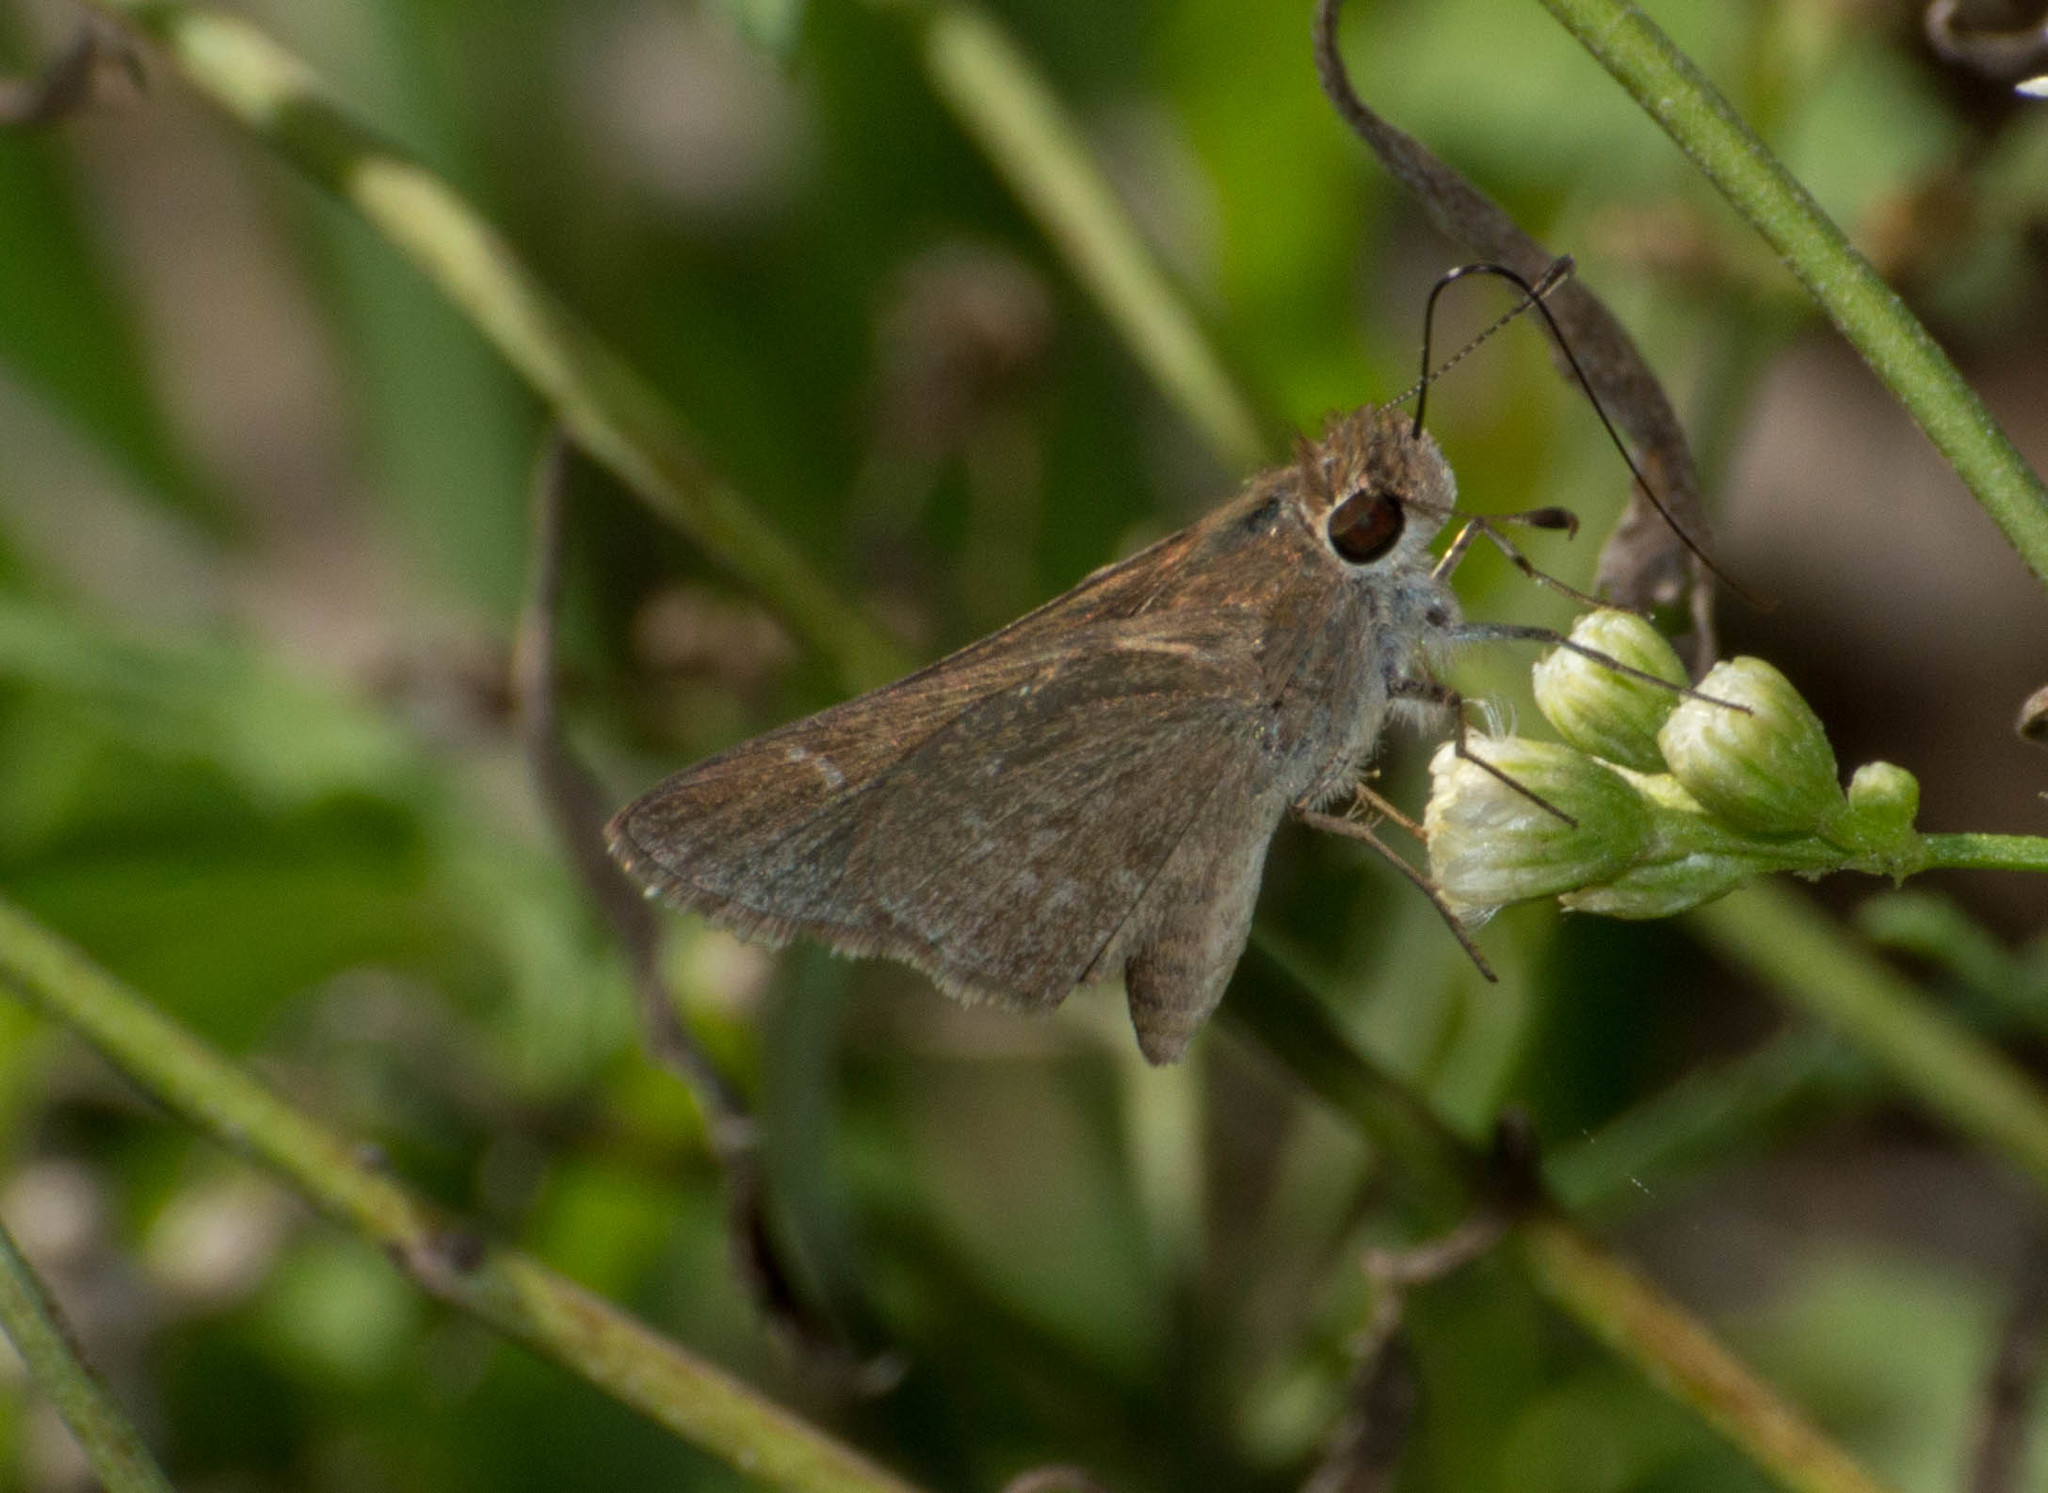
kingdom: Animalia
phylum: Arthropoda
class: Insecta
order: Lepidoptera
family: Hesperiidae
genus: Lerodea
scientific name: Lerodea eufala
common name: Eufala skipper
